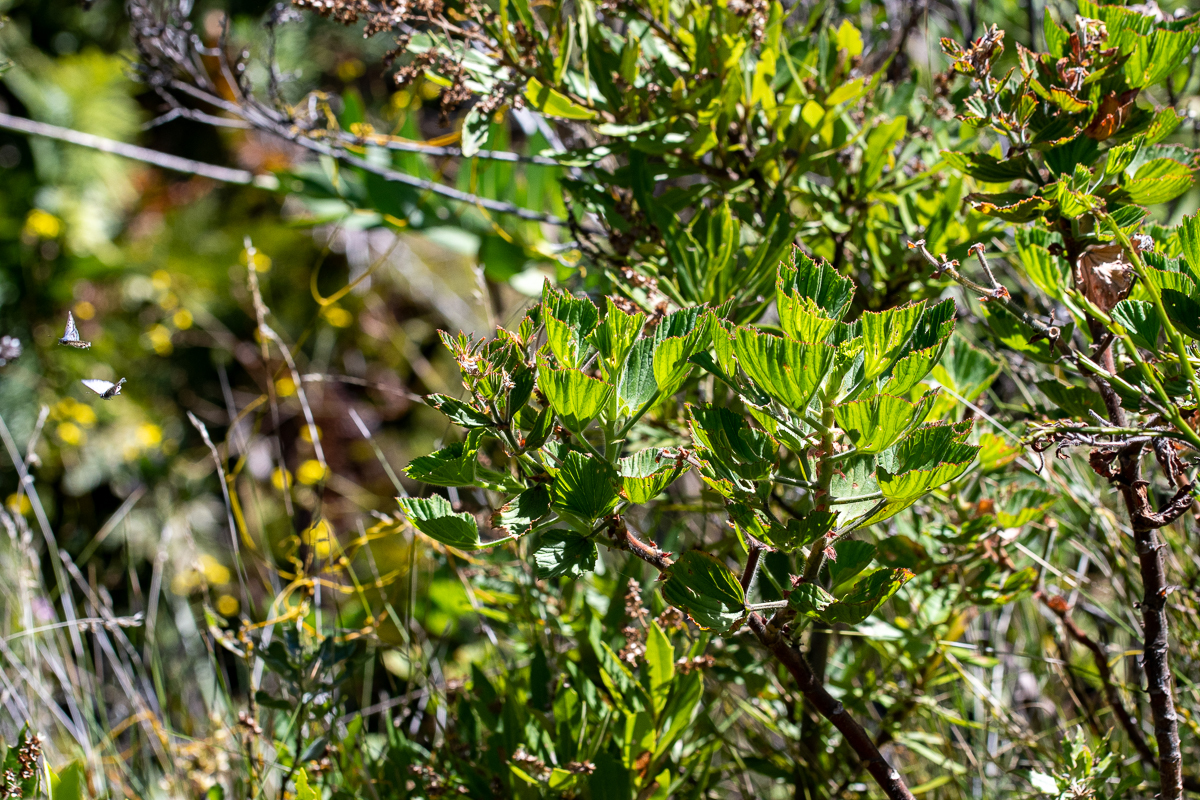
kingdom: Plantae
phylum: Tracheophyta
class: Magnoliopsida
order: Geraniales
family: Geraniaceae
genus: Pelargonium
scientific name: Pelargonium cucullatum
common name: Tree pelargonium
